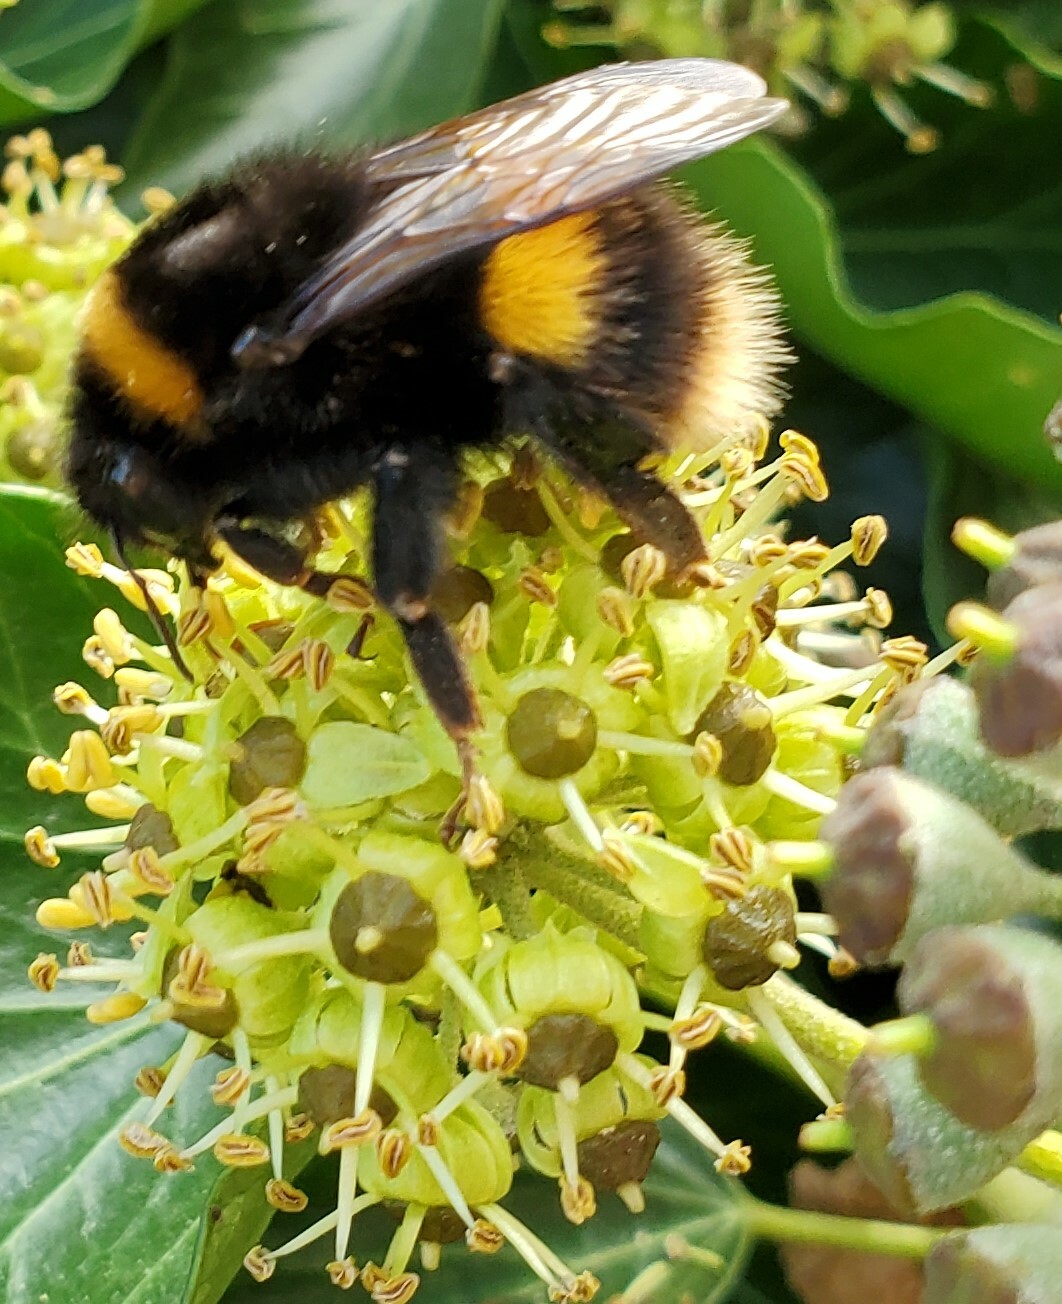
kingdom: Animalia
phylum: Arthropoda
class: Insecta
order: Hymenoptera
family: Apidae
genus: Bombus
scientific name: Bombus terrestris
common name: Buff-tailed bumblebee
